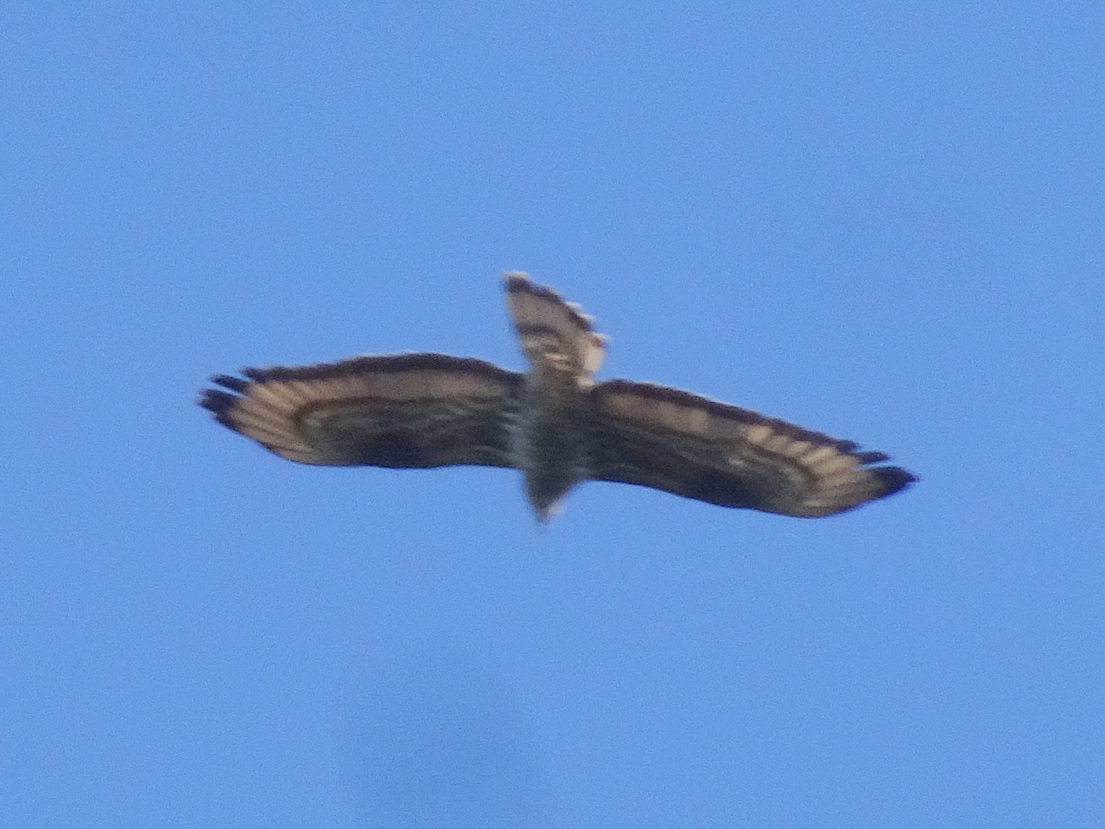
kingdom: Animalia
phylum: Chordata
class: Aves
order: Accipitriformes
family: Accipitridae
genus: Pernis
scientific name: Pernis apivorus
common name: European honey buzzard
